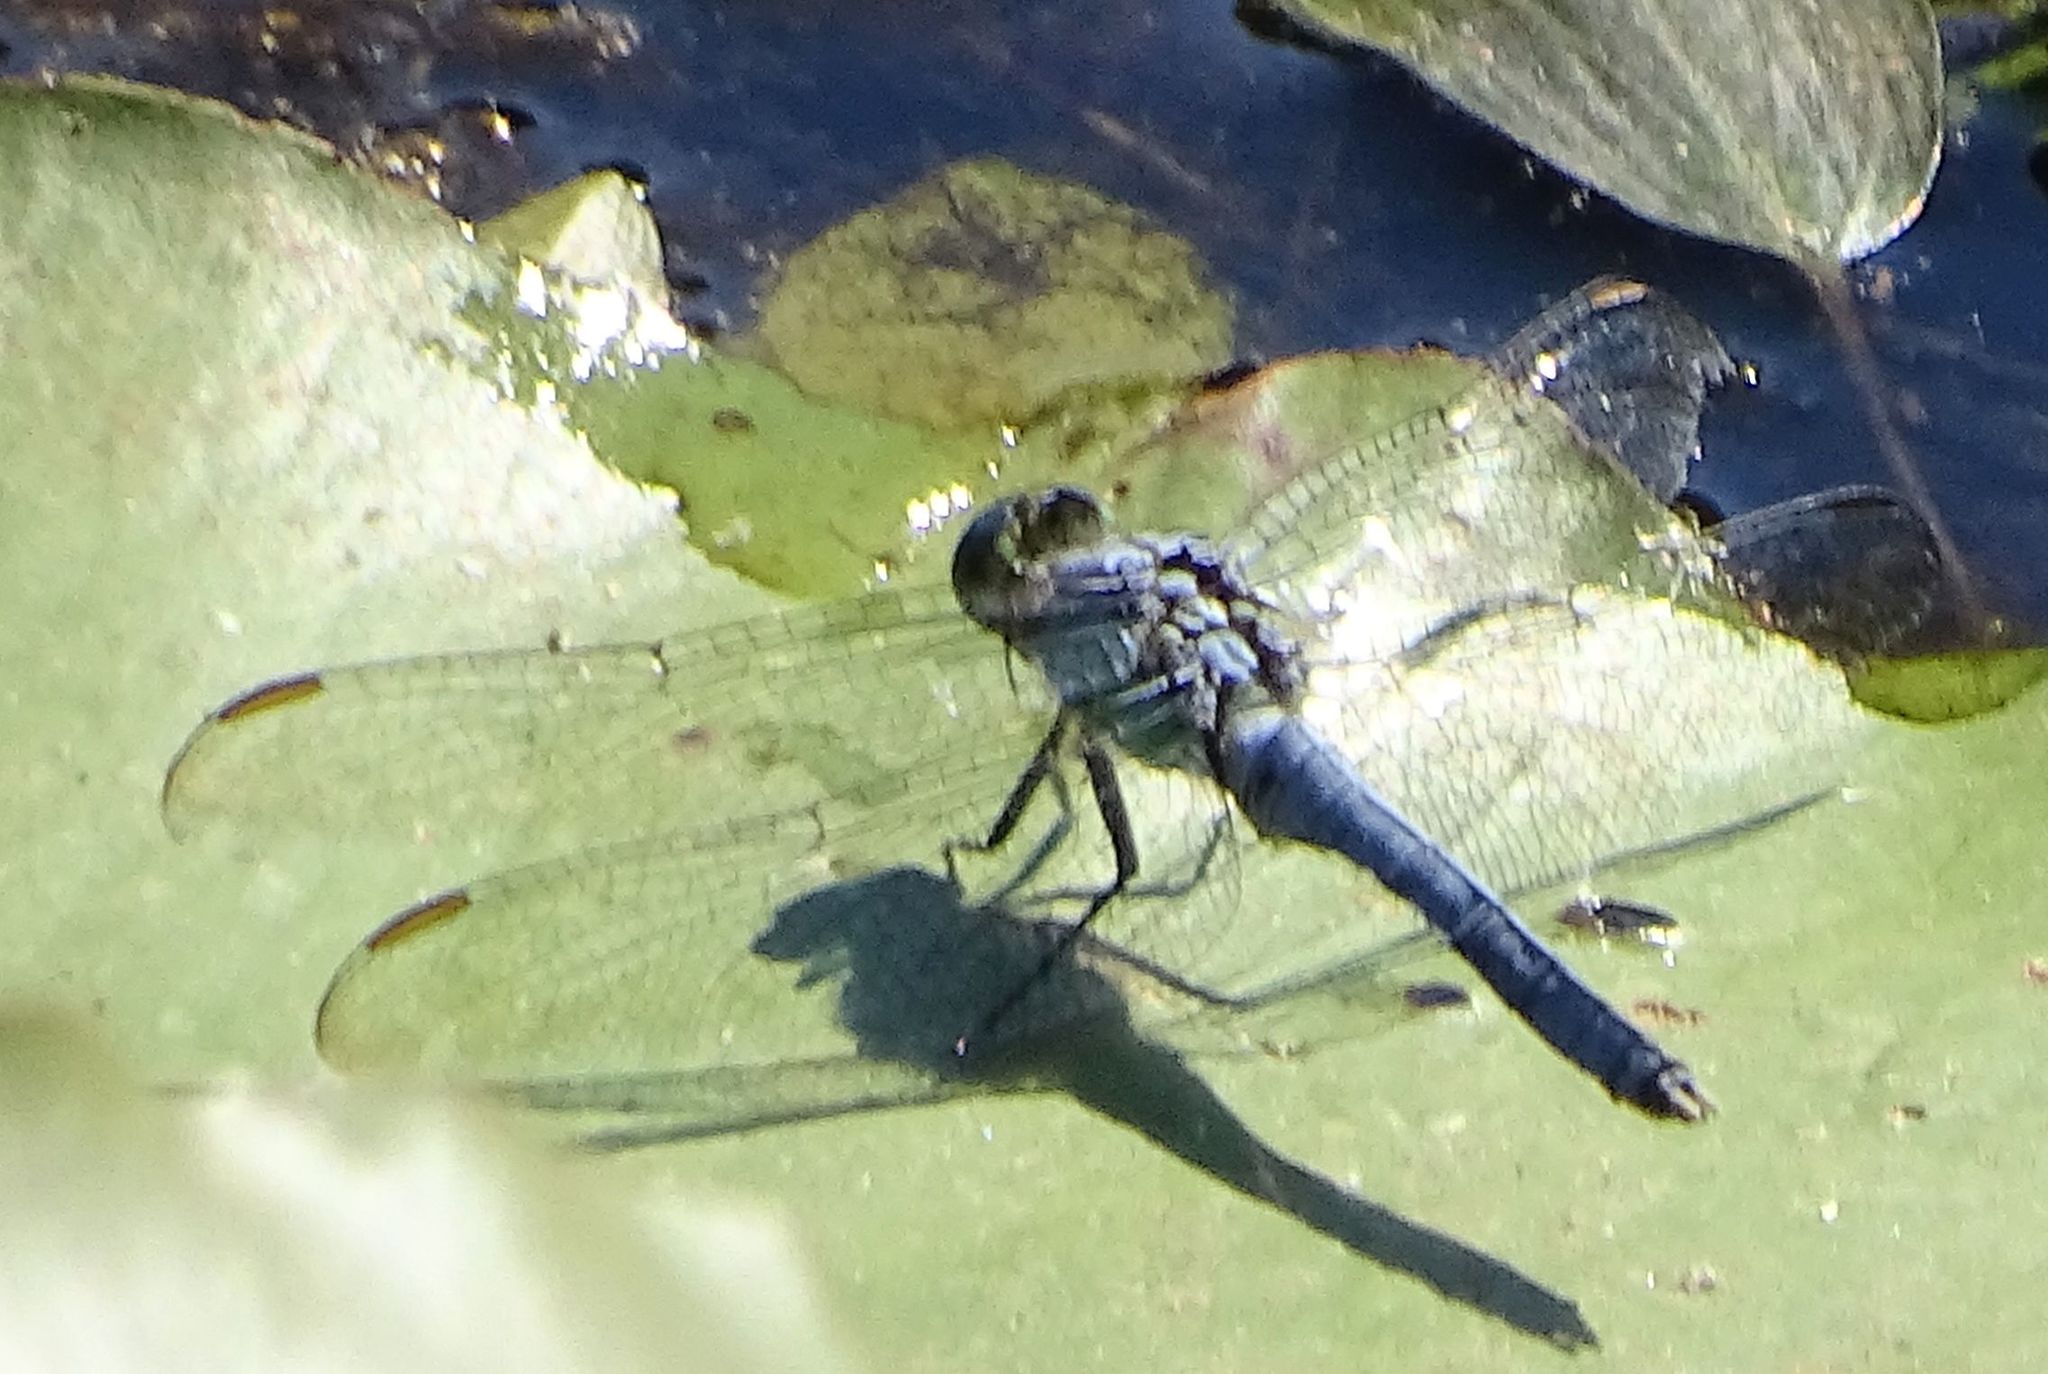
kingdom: Animalia
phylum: Arthropoda
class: Insecta
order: Odonata
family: Libellulidae
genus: Erythemis
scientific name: Erythemis simplicicollis
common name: Eastern pondhawk
